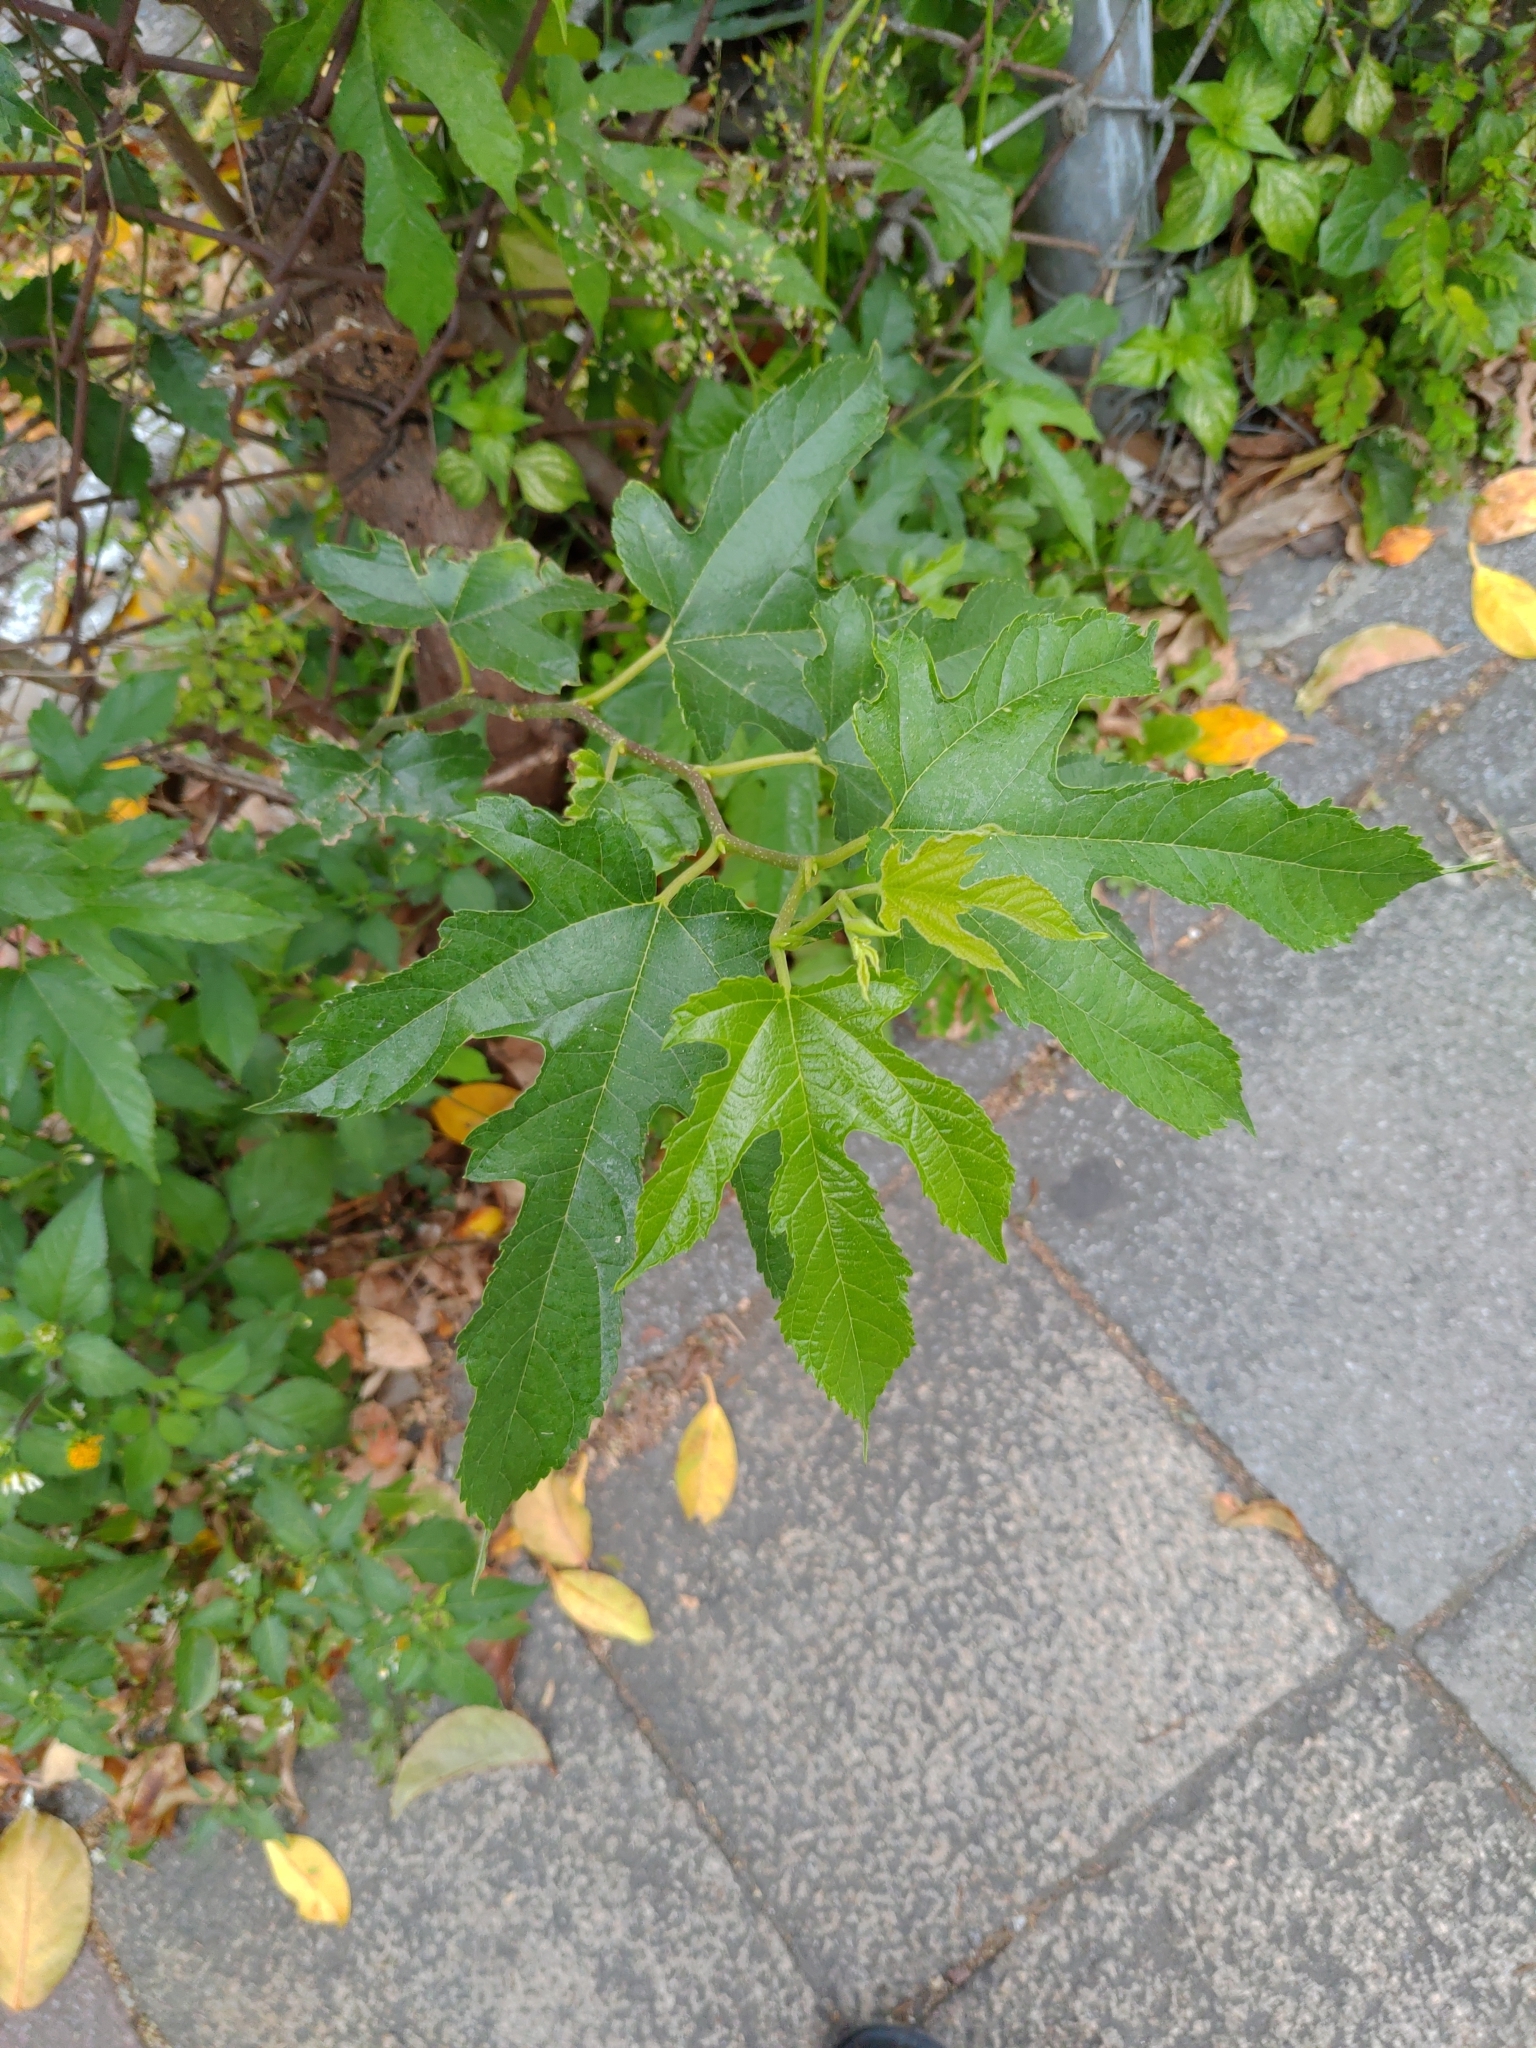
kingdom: Plantae
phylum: Tracheophyta
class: Magnoliopsida
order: Rosales
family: Moraceae
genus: Morus
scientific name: Morus indica
